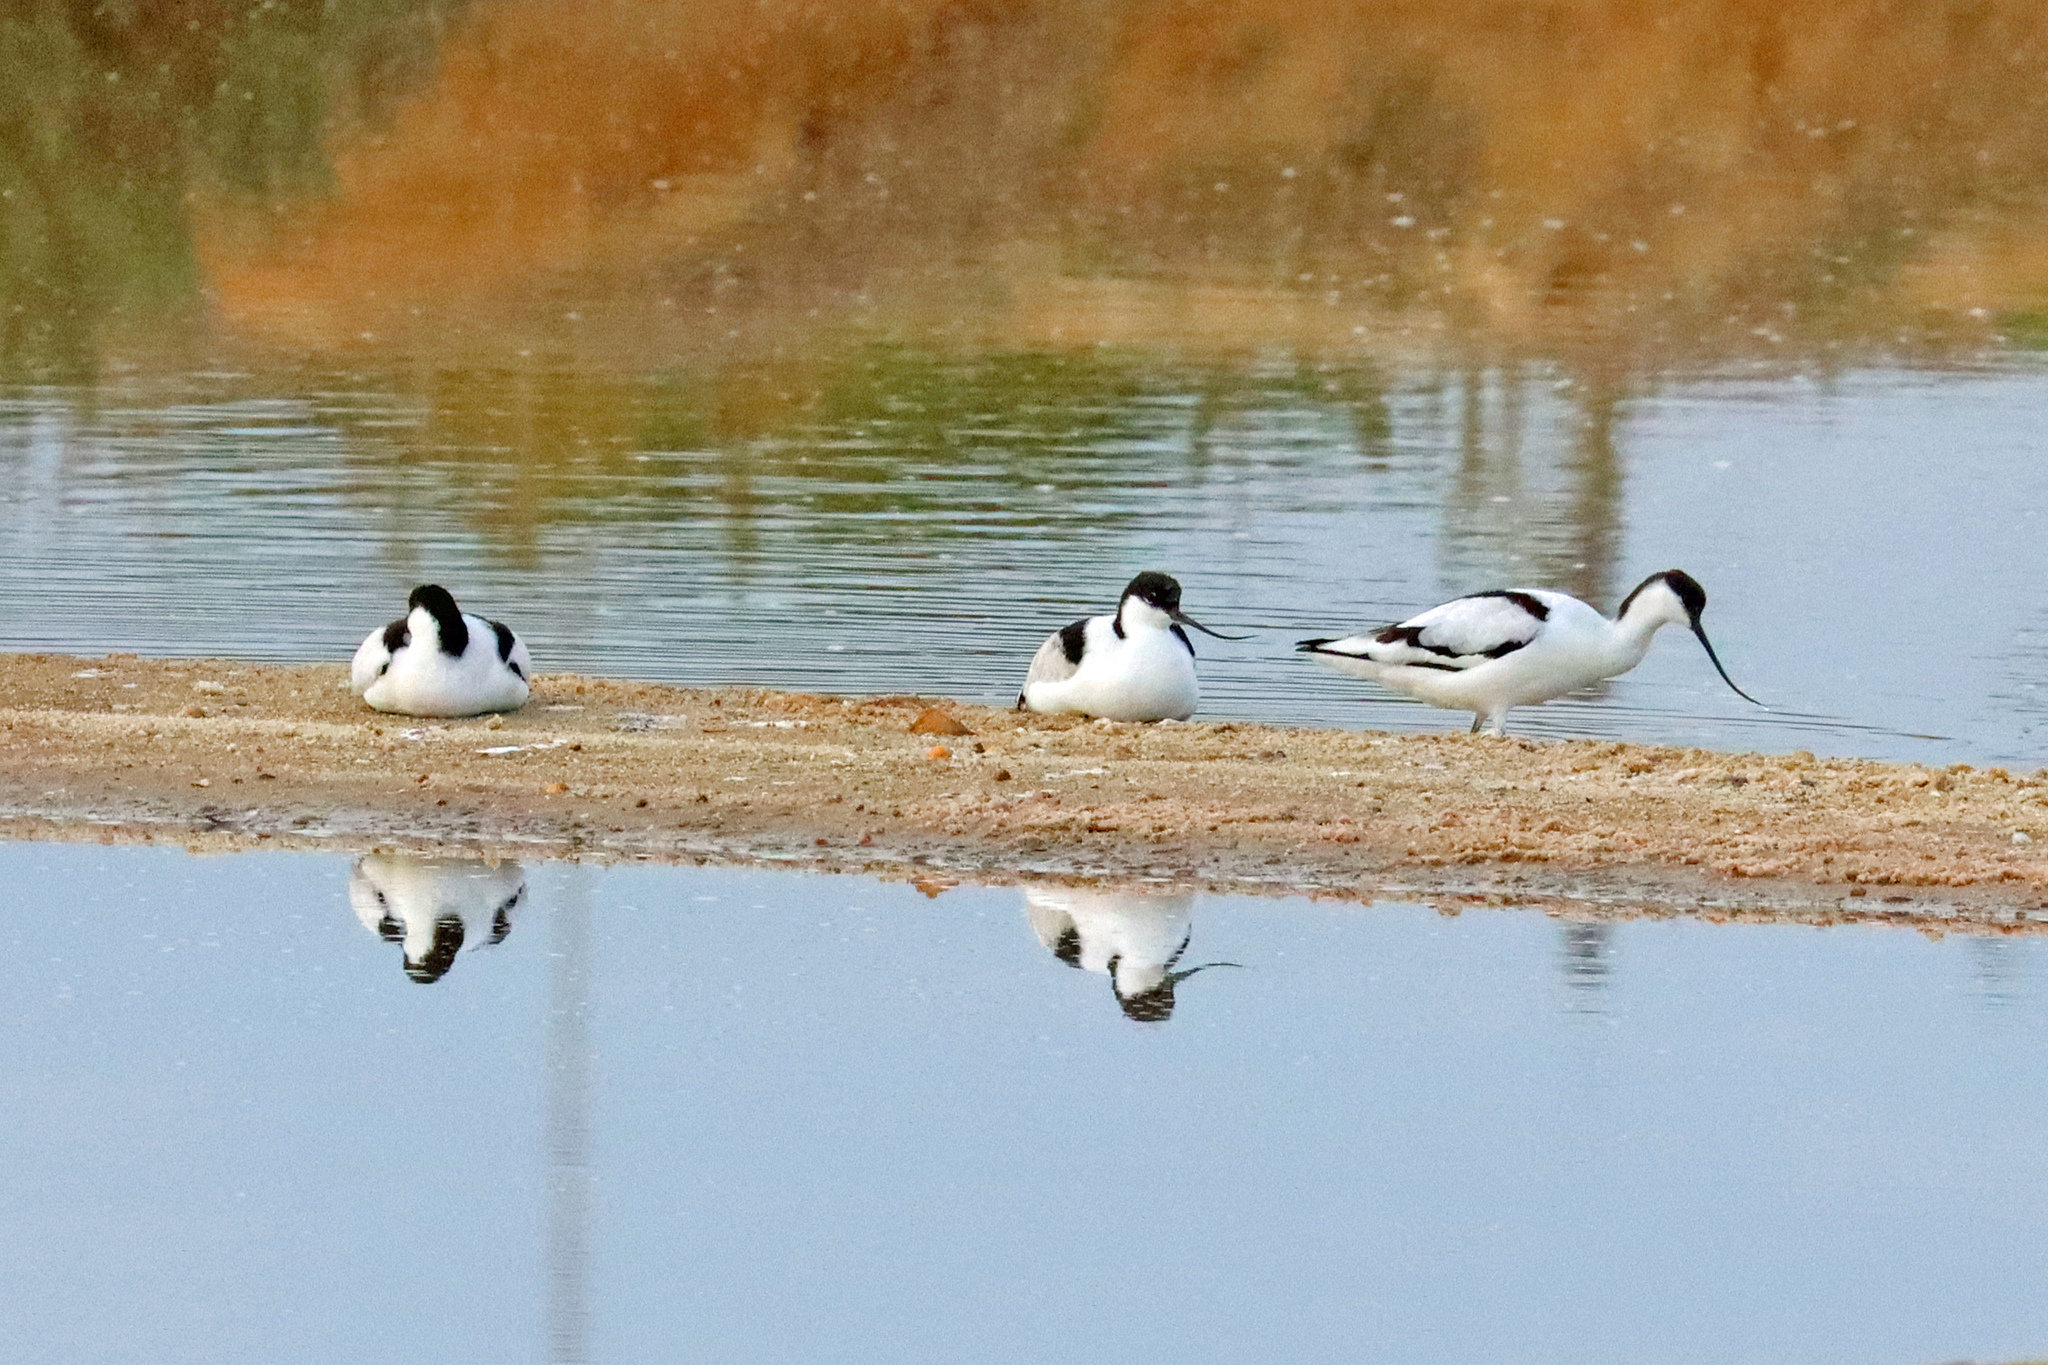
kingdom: Animalia
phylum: Chordata
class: Aves
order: Charadriiformes
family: Recurvirostridae
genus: Recurvirostra
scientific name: Recurvirostra avosetta
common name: Pied avocet
